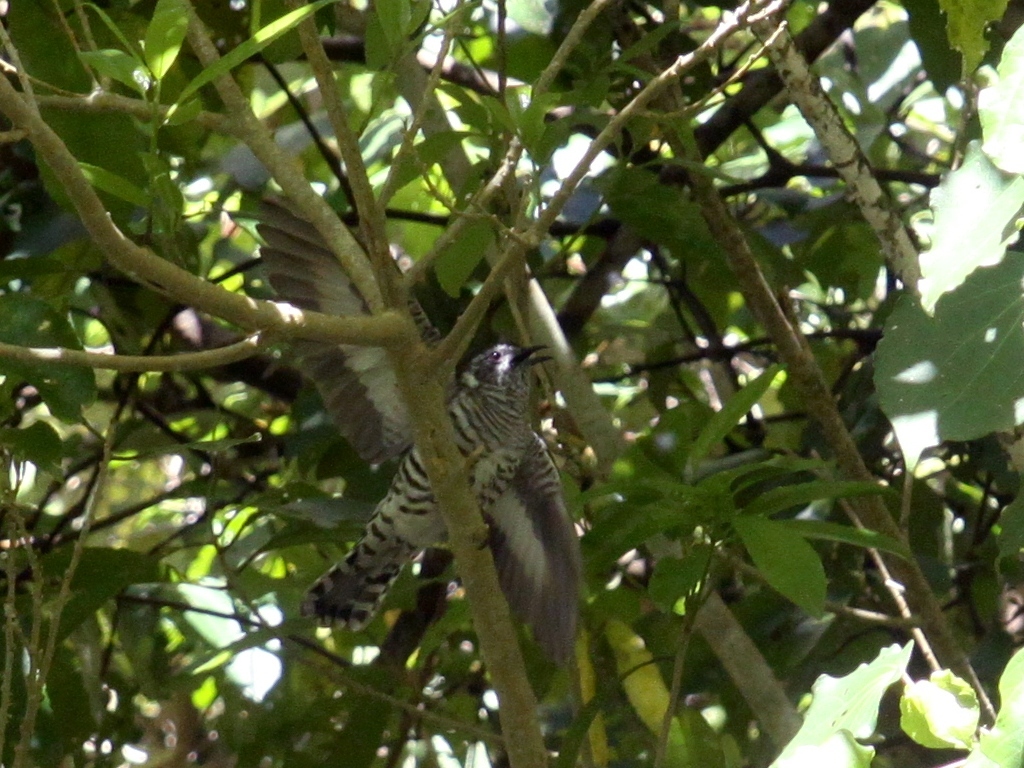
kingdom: Animalia
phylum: Chordata
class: Aves
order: Cuculiformes
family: Cuculidae
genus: Chrysococcyx
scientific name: Chrysococcyx lucidus
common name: Shining bronze cuckoo
